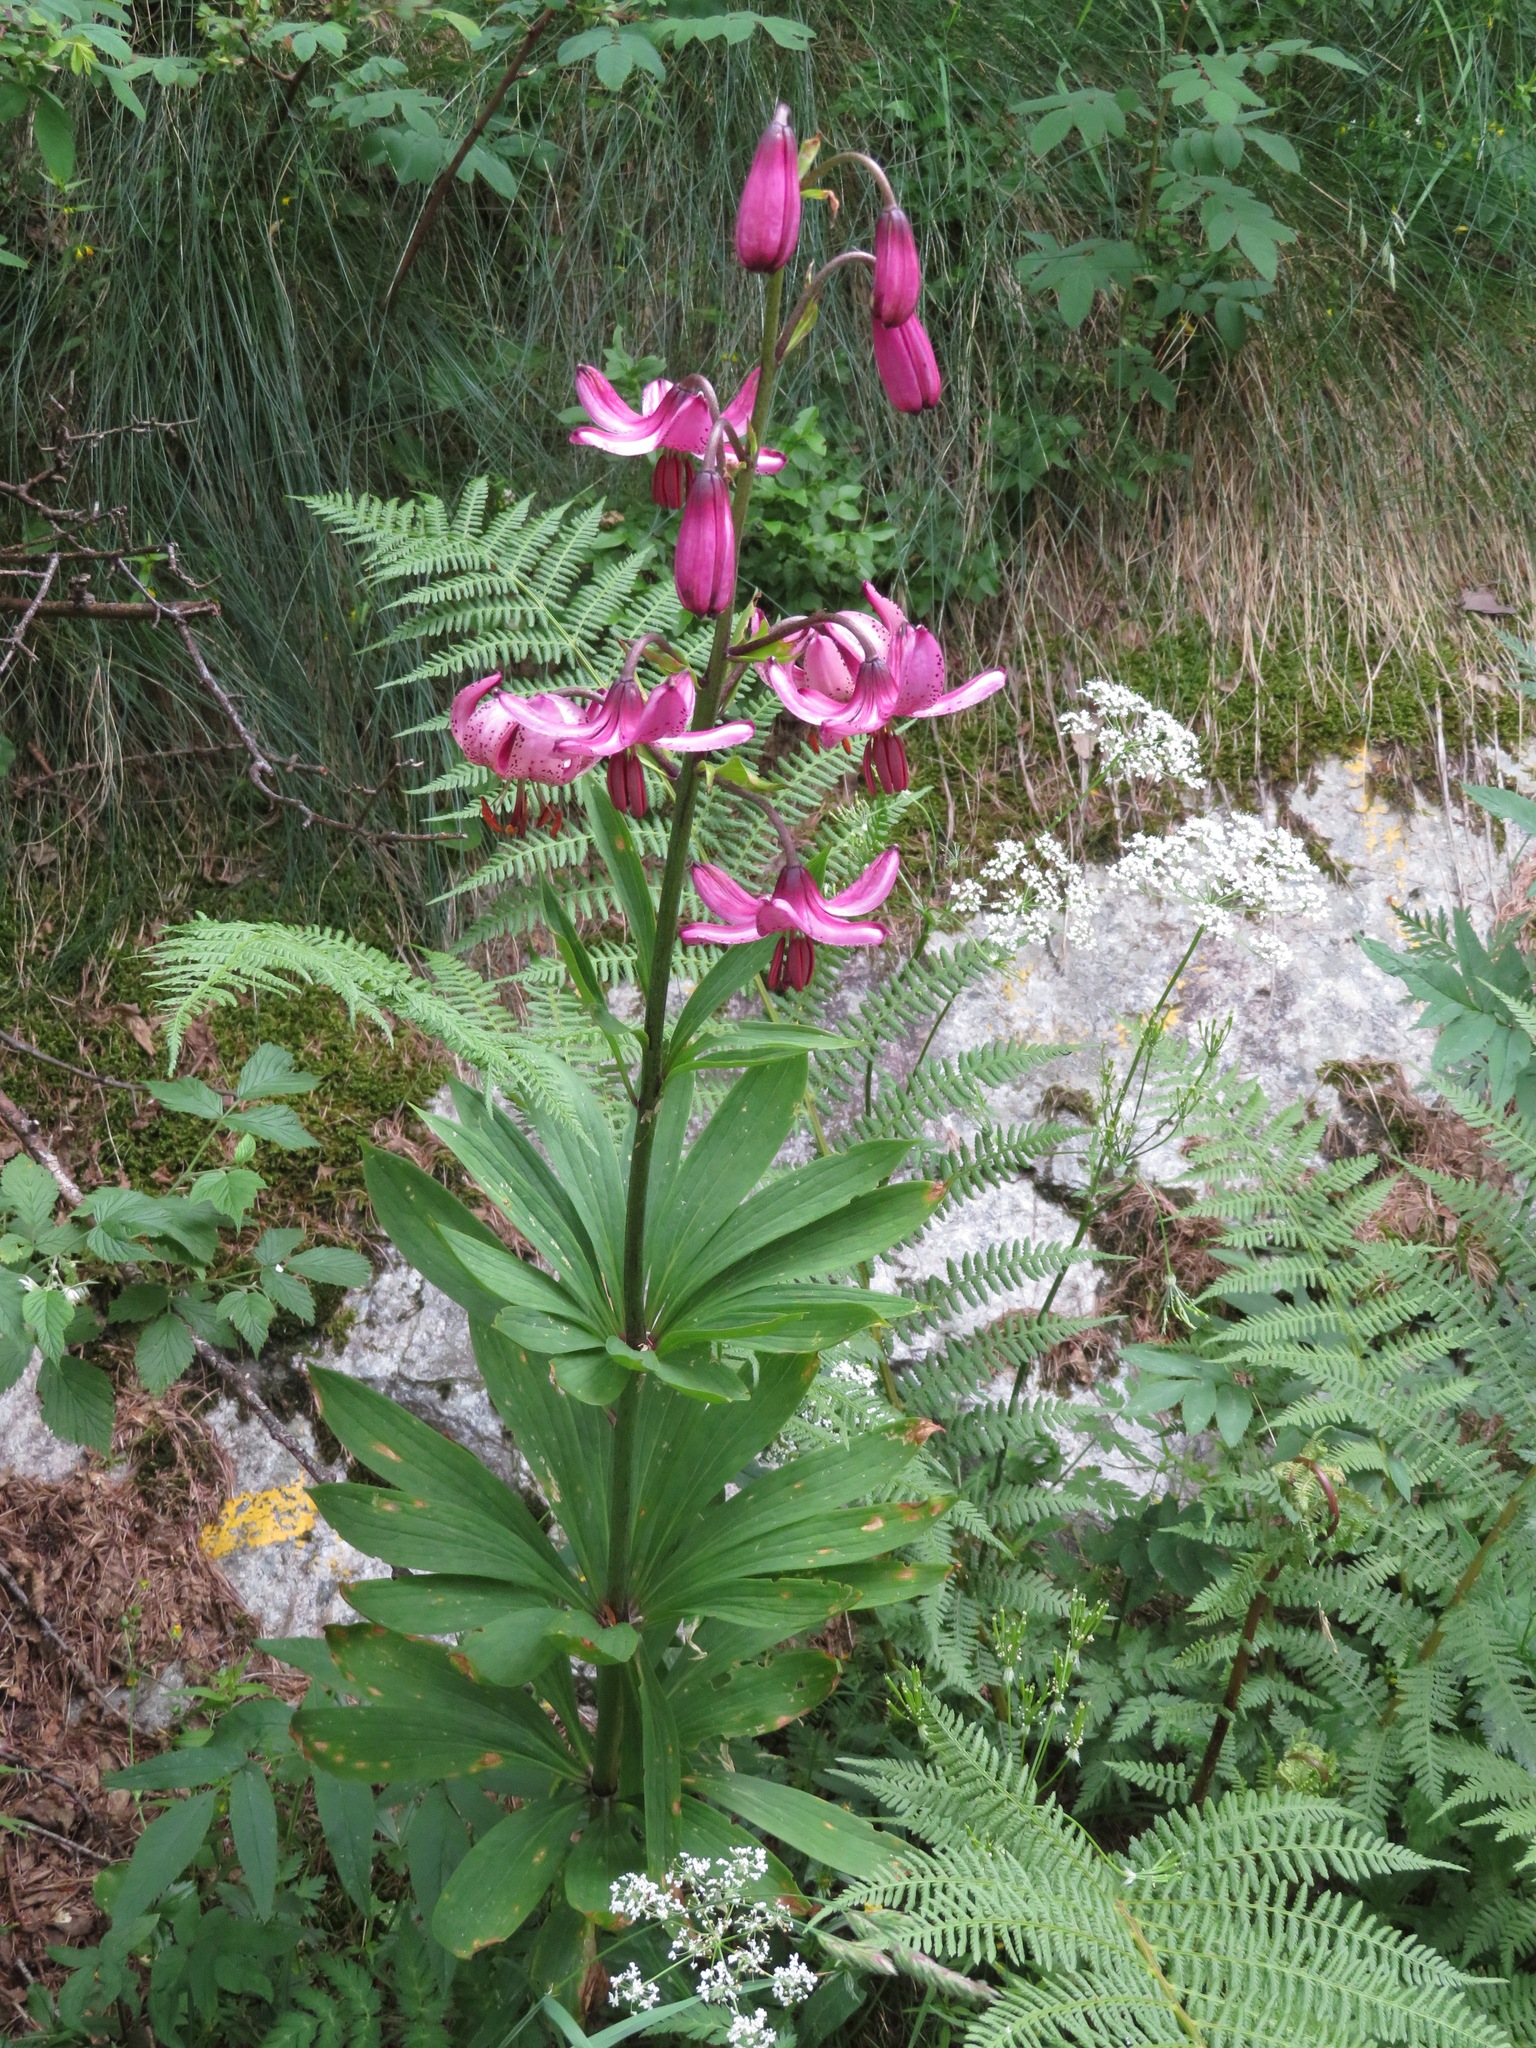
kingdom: Plantae
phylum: Tracheophyta
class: Liliopsida
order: Liliales
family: Liliaceae
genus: Lilium
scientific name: Lilium martagon
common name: Martagon lily
